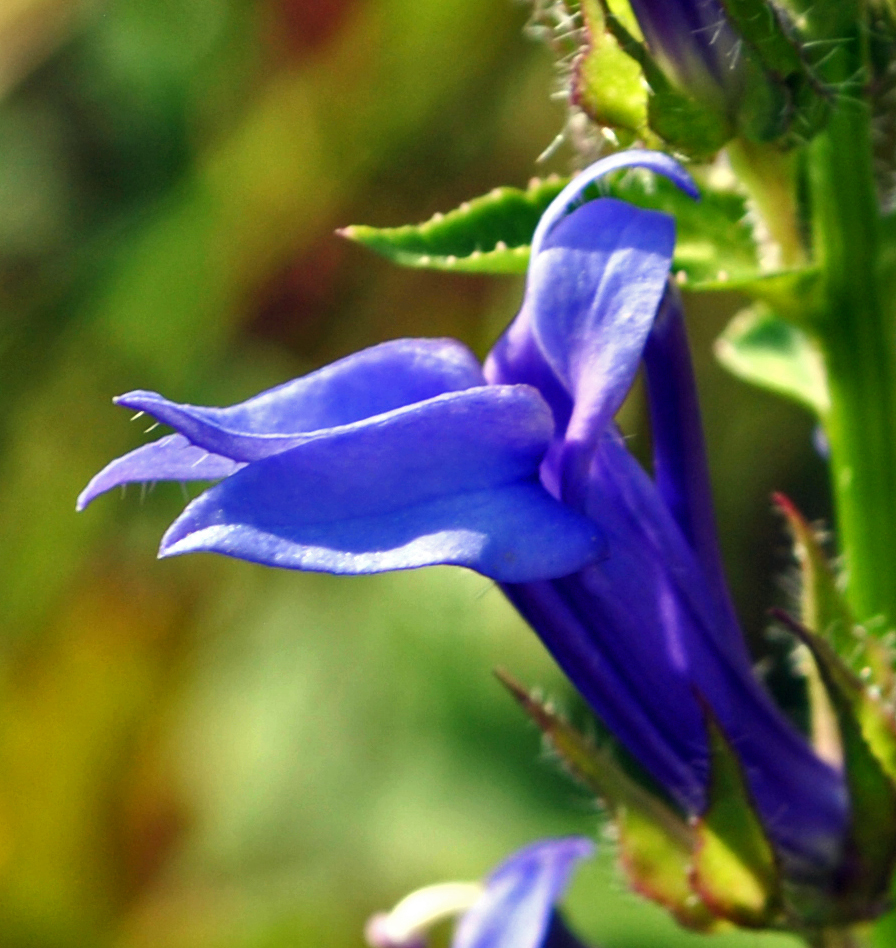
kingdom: Plantae
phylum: Tracheophyta
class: Magnoliopsida
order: Asterales
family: Campanulaceae
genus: Lobelia
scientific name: Lobelia siphilitica
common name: Great lobelia
